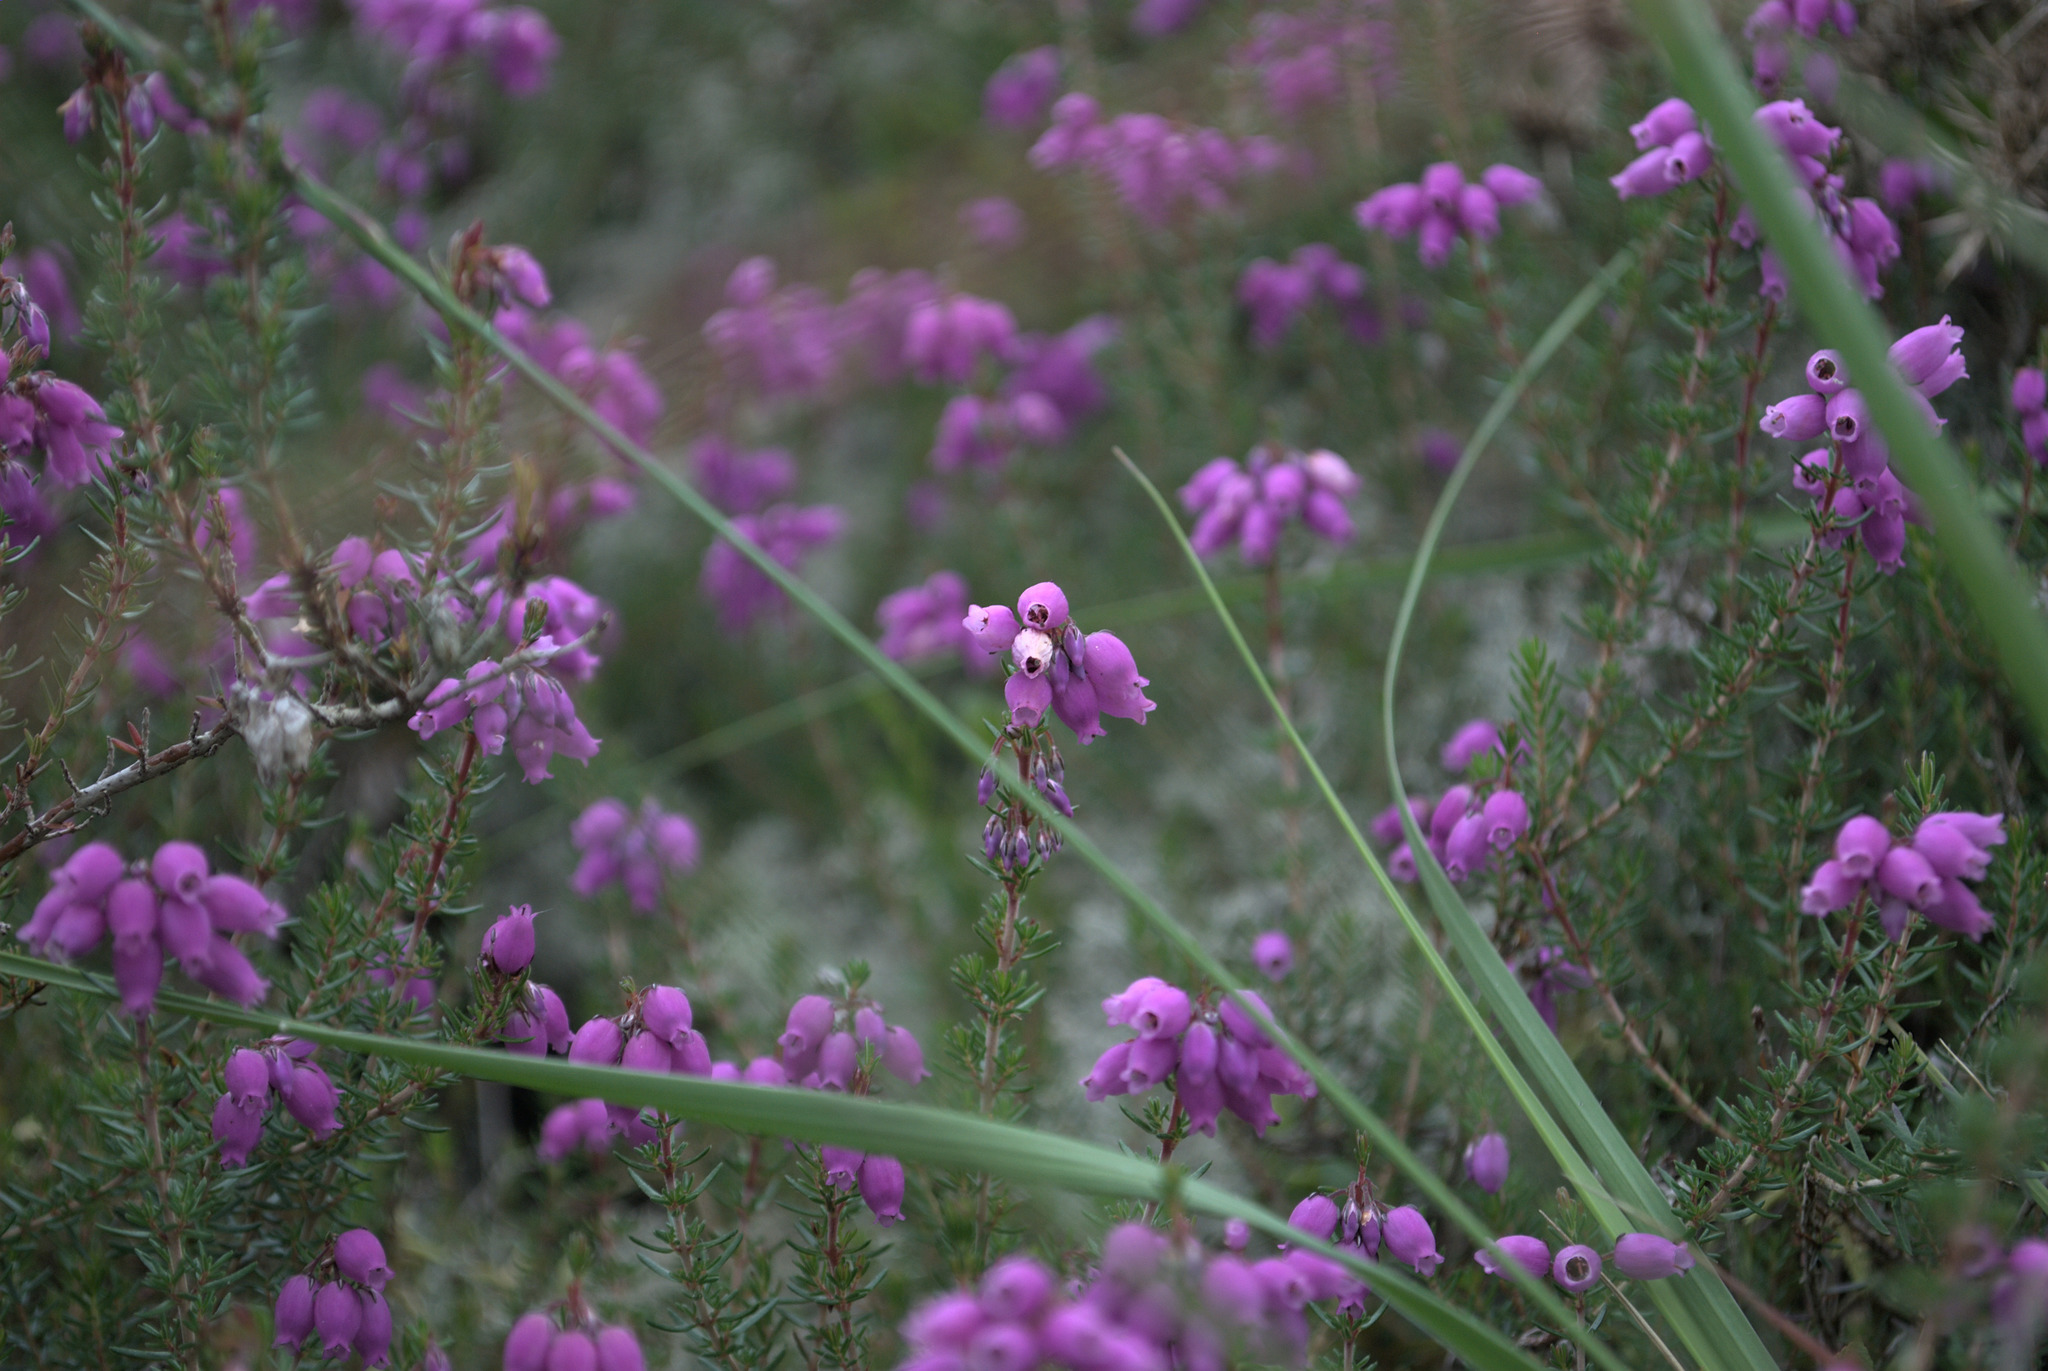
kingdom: Plantae
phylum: Tracheophyta
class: Magnoliopsida
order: Ericales
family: Ericaceae
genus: Erica
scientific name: Erica cinerea
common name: Bell heather
